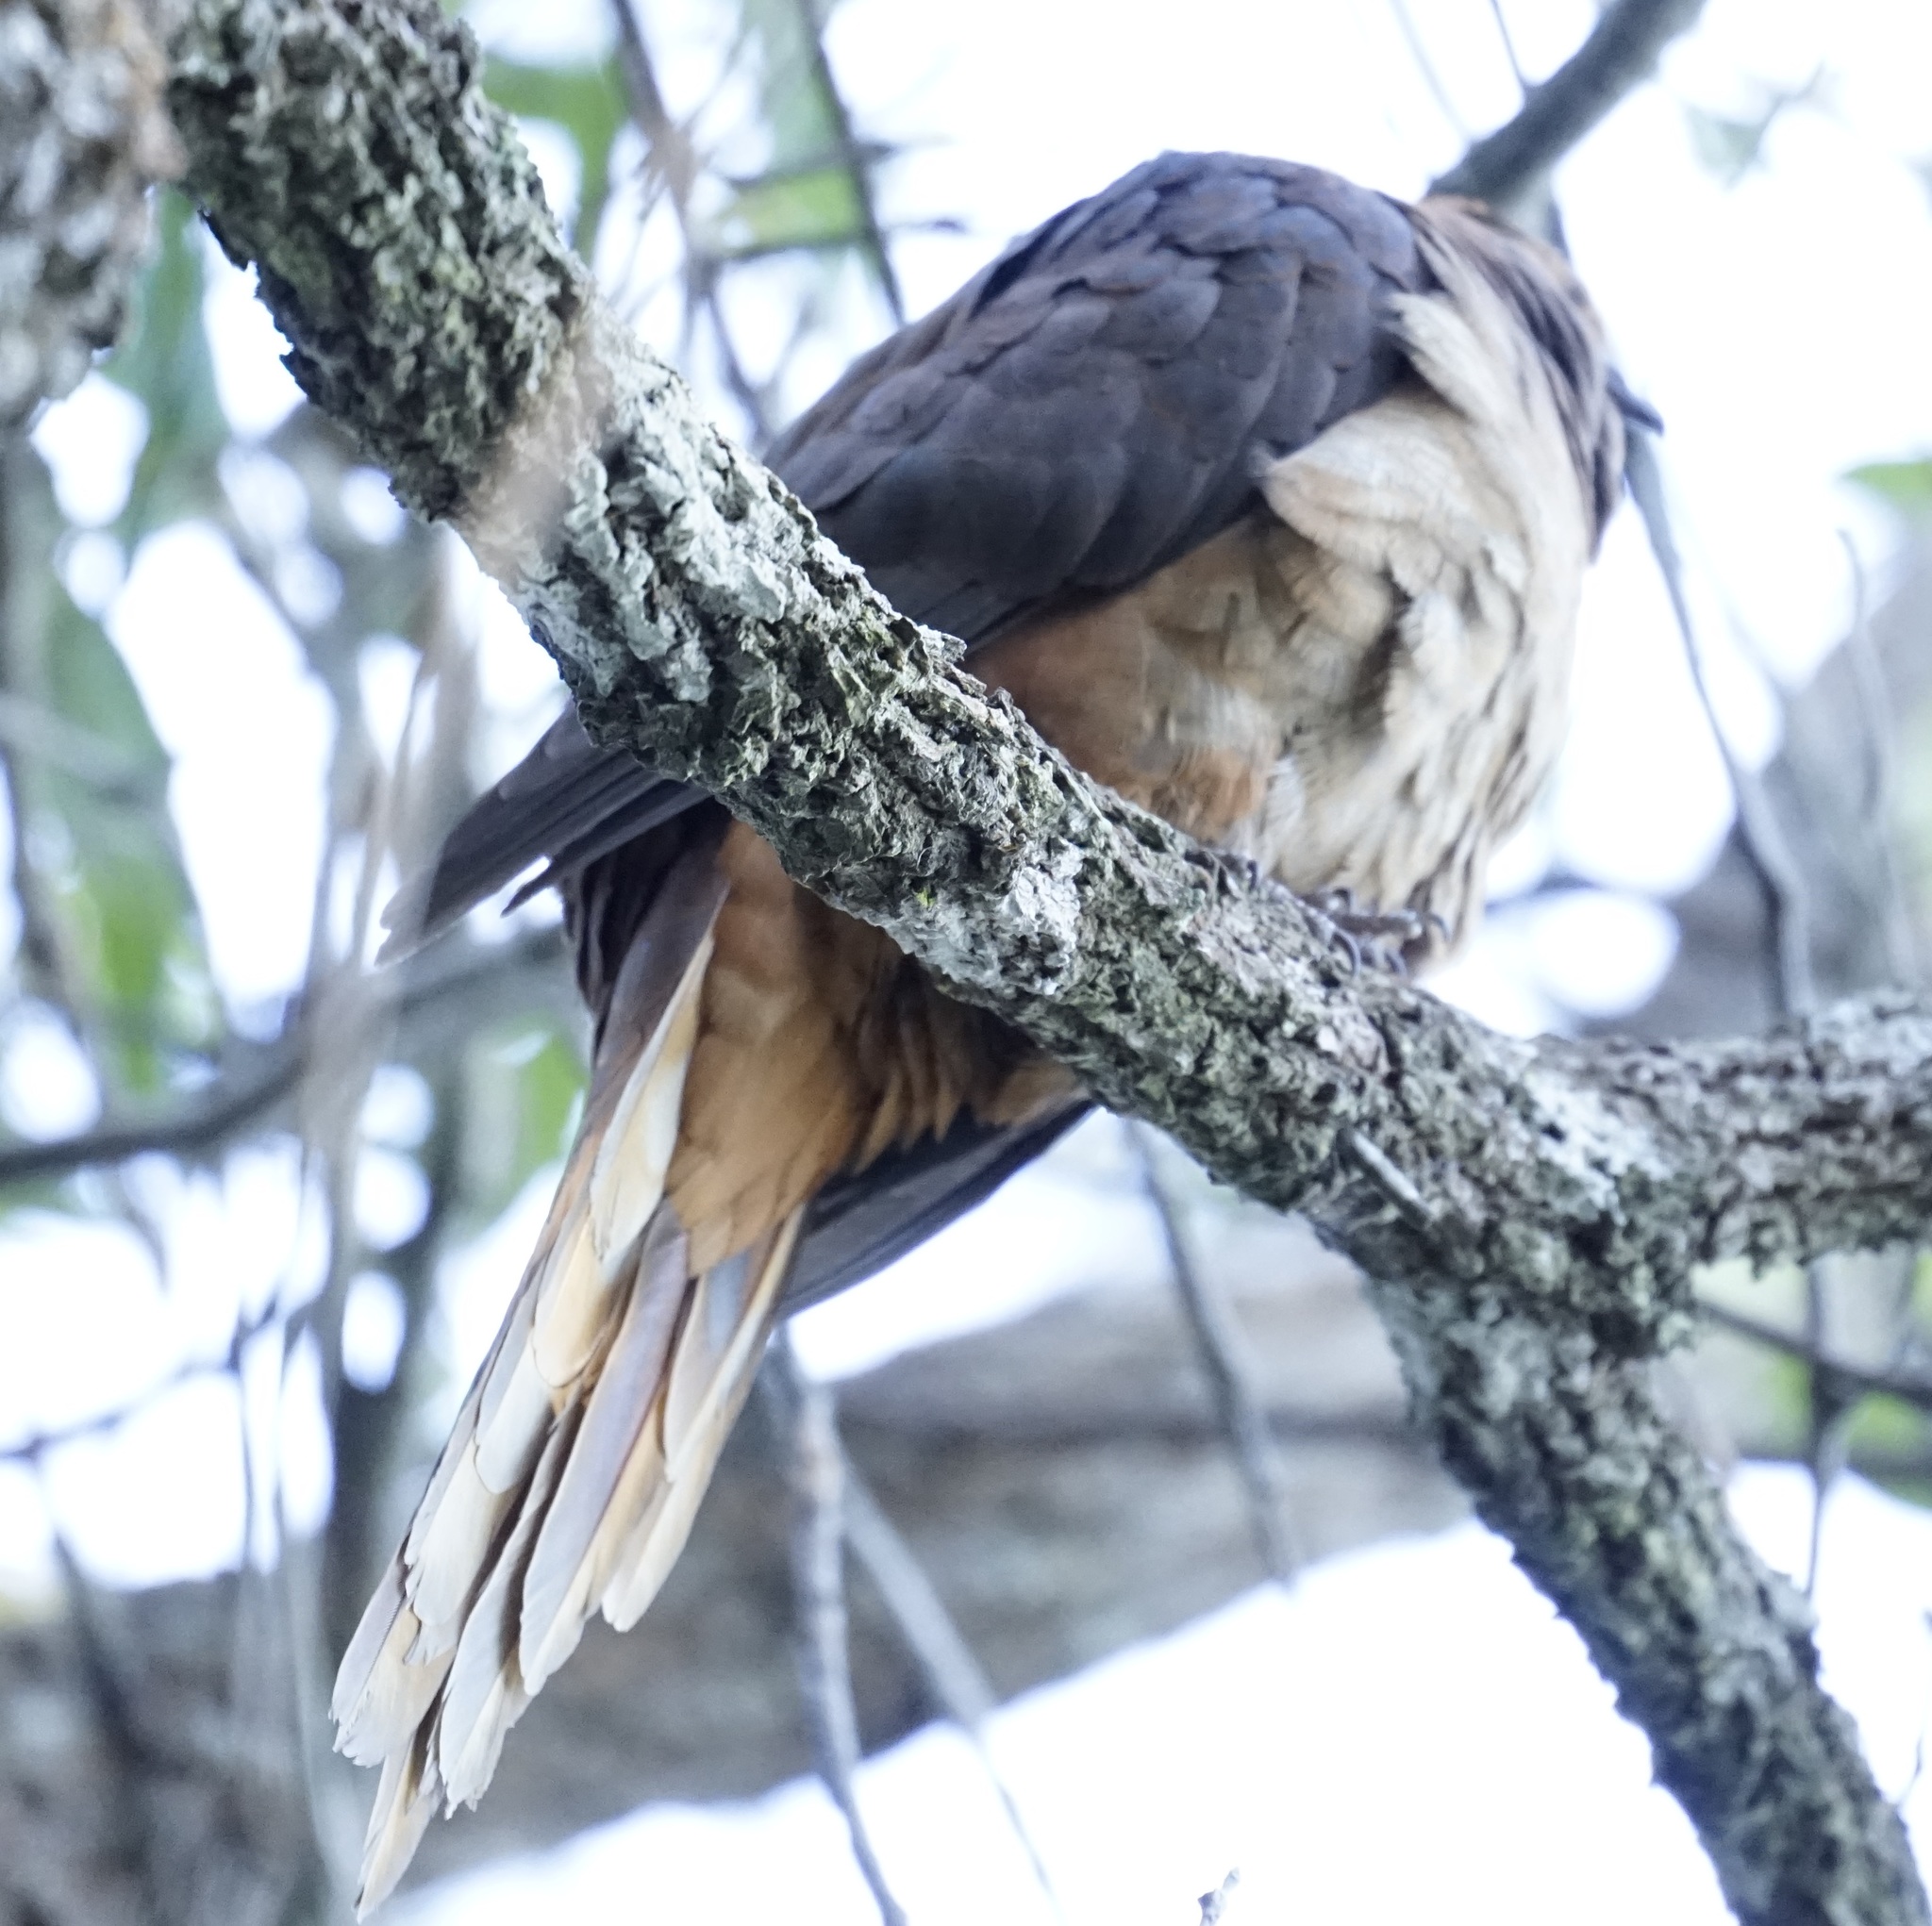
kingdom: Animalia
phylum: Chordata
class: Aves
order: Columbiformes
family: Columbidae
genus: Macropygia
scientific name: Macropygia phasianella
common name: Brown cuckoo-dove
